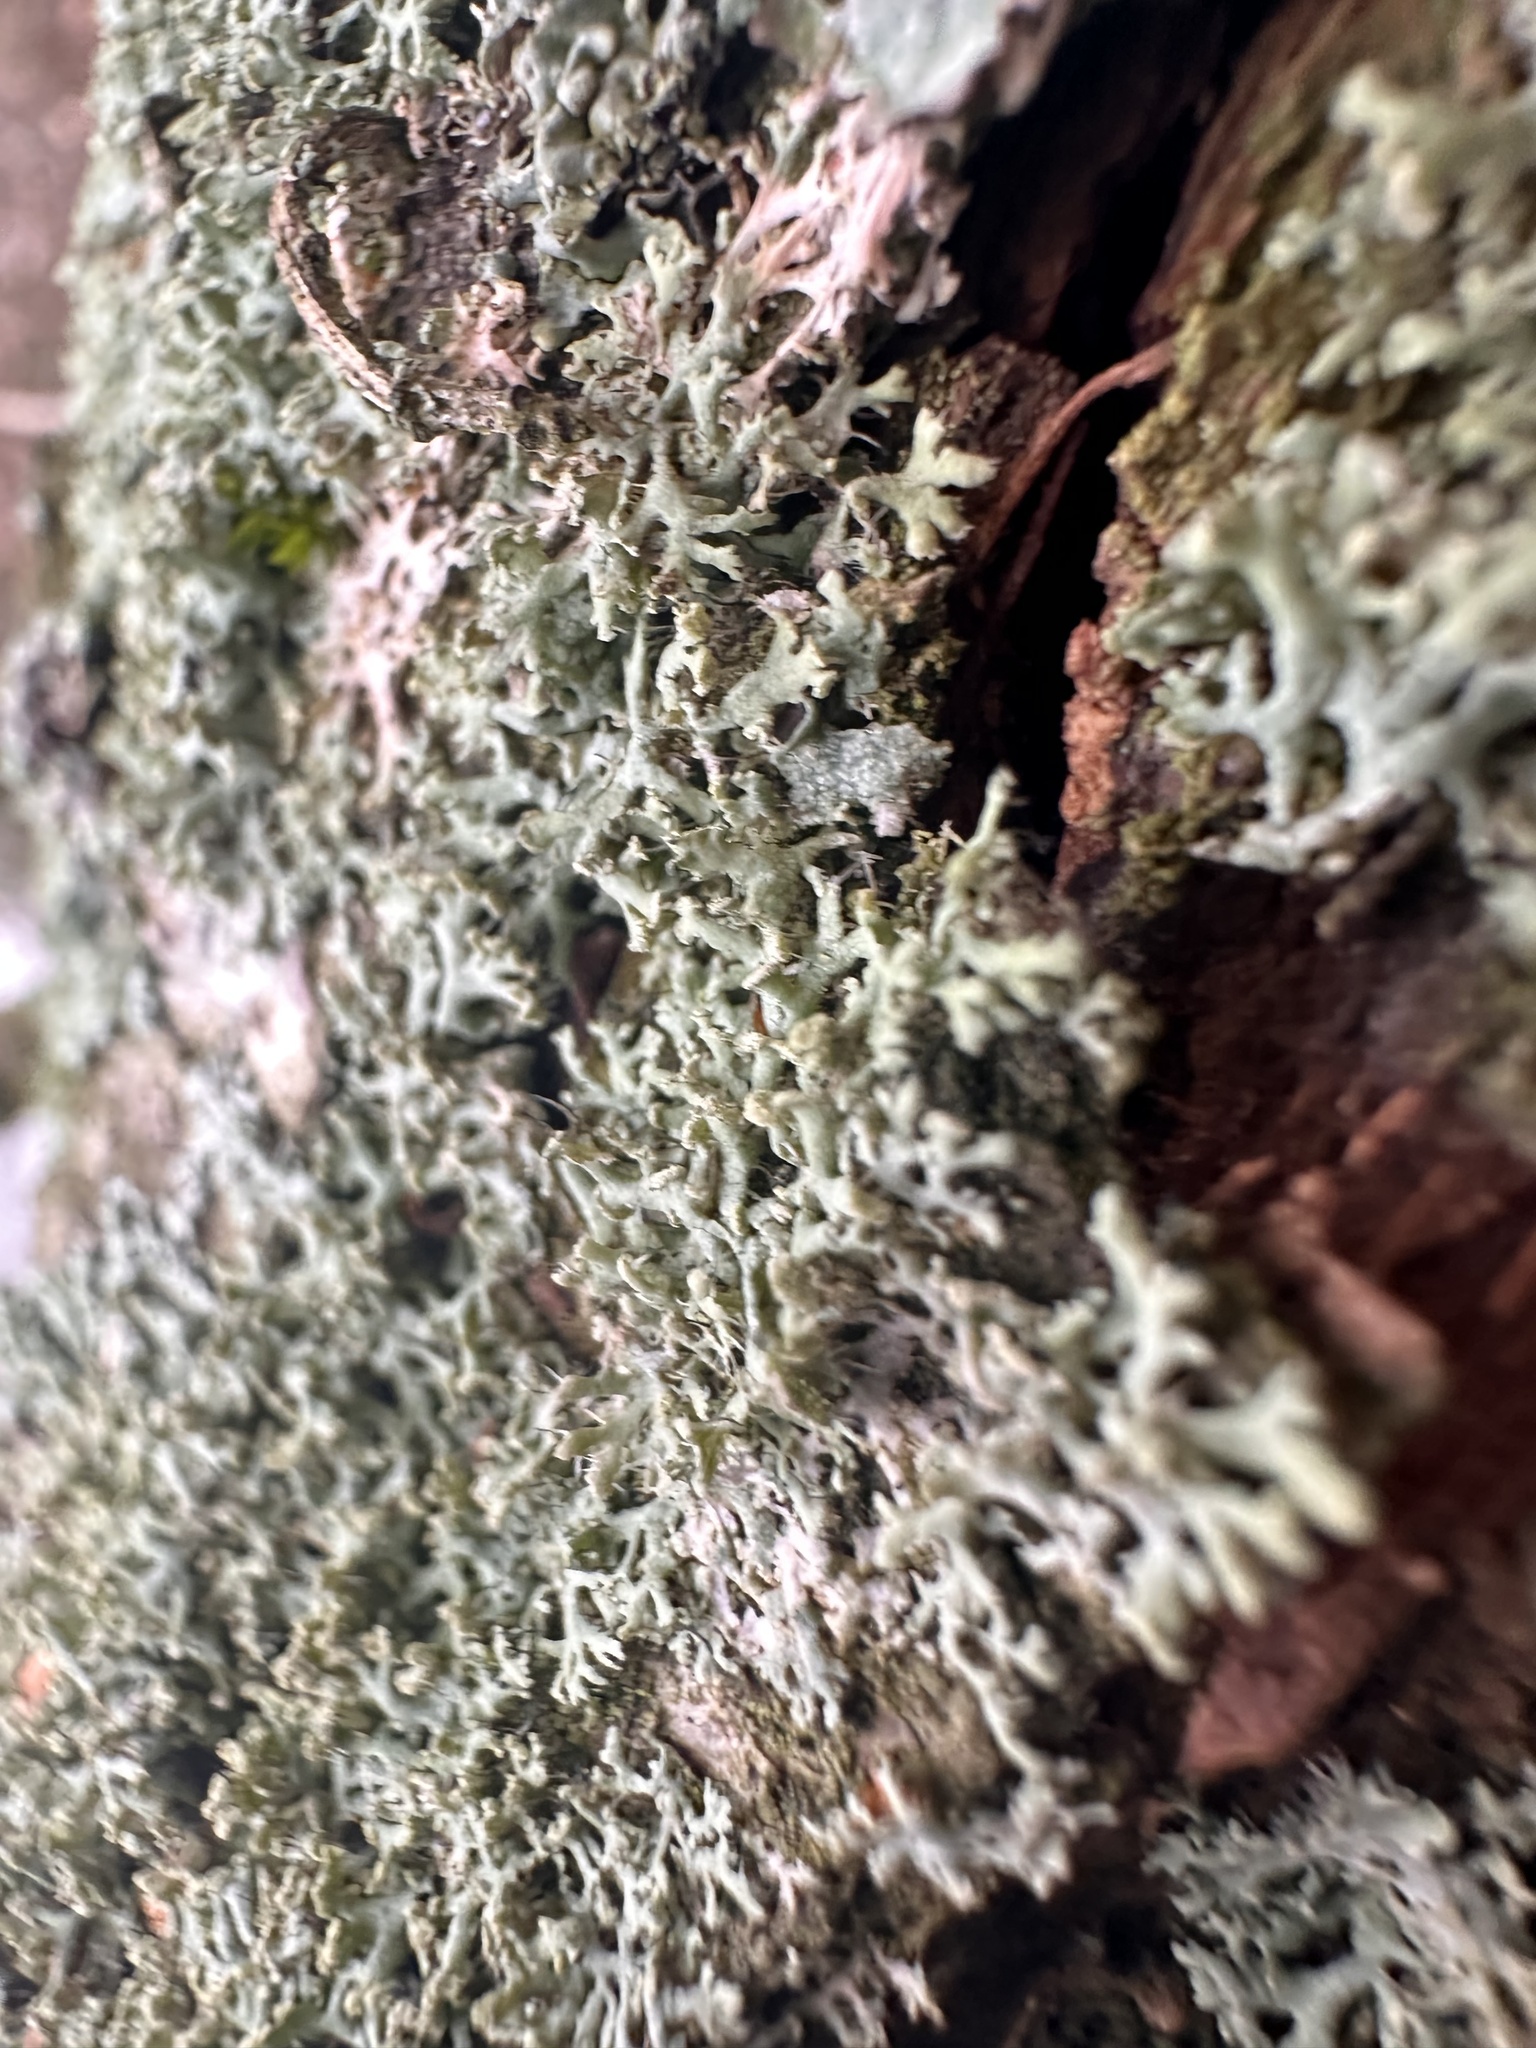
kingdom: Fungi
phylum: Ascomycota
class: Lecanoromycetes
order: Caliciales
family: Physciaceae
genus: Physcia
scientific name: Physcia tenella
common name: Fringed rosette lichen
